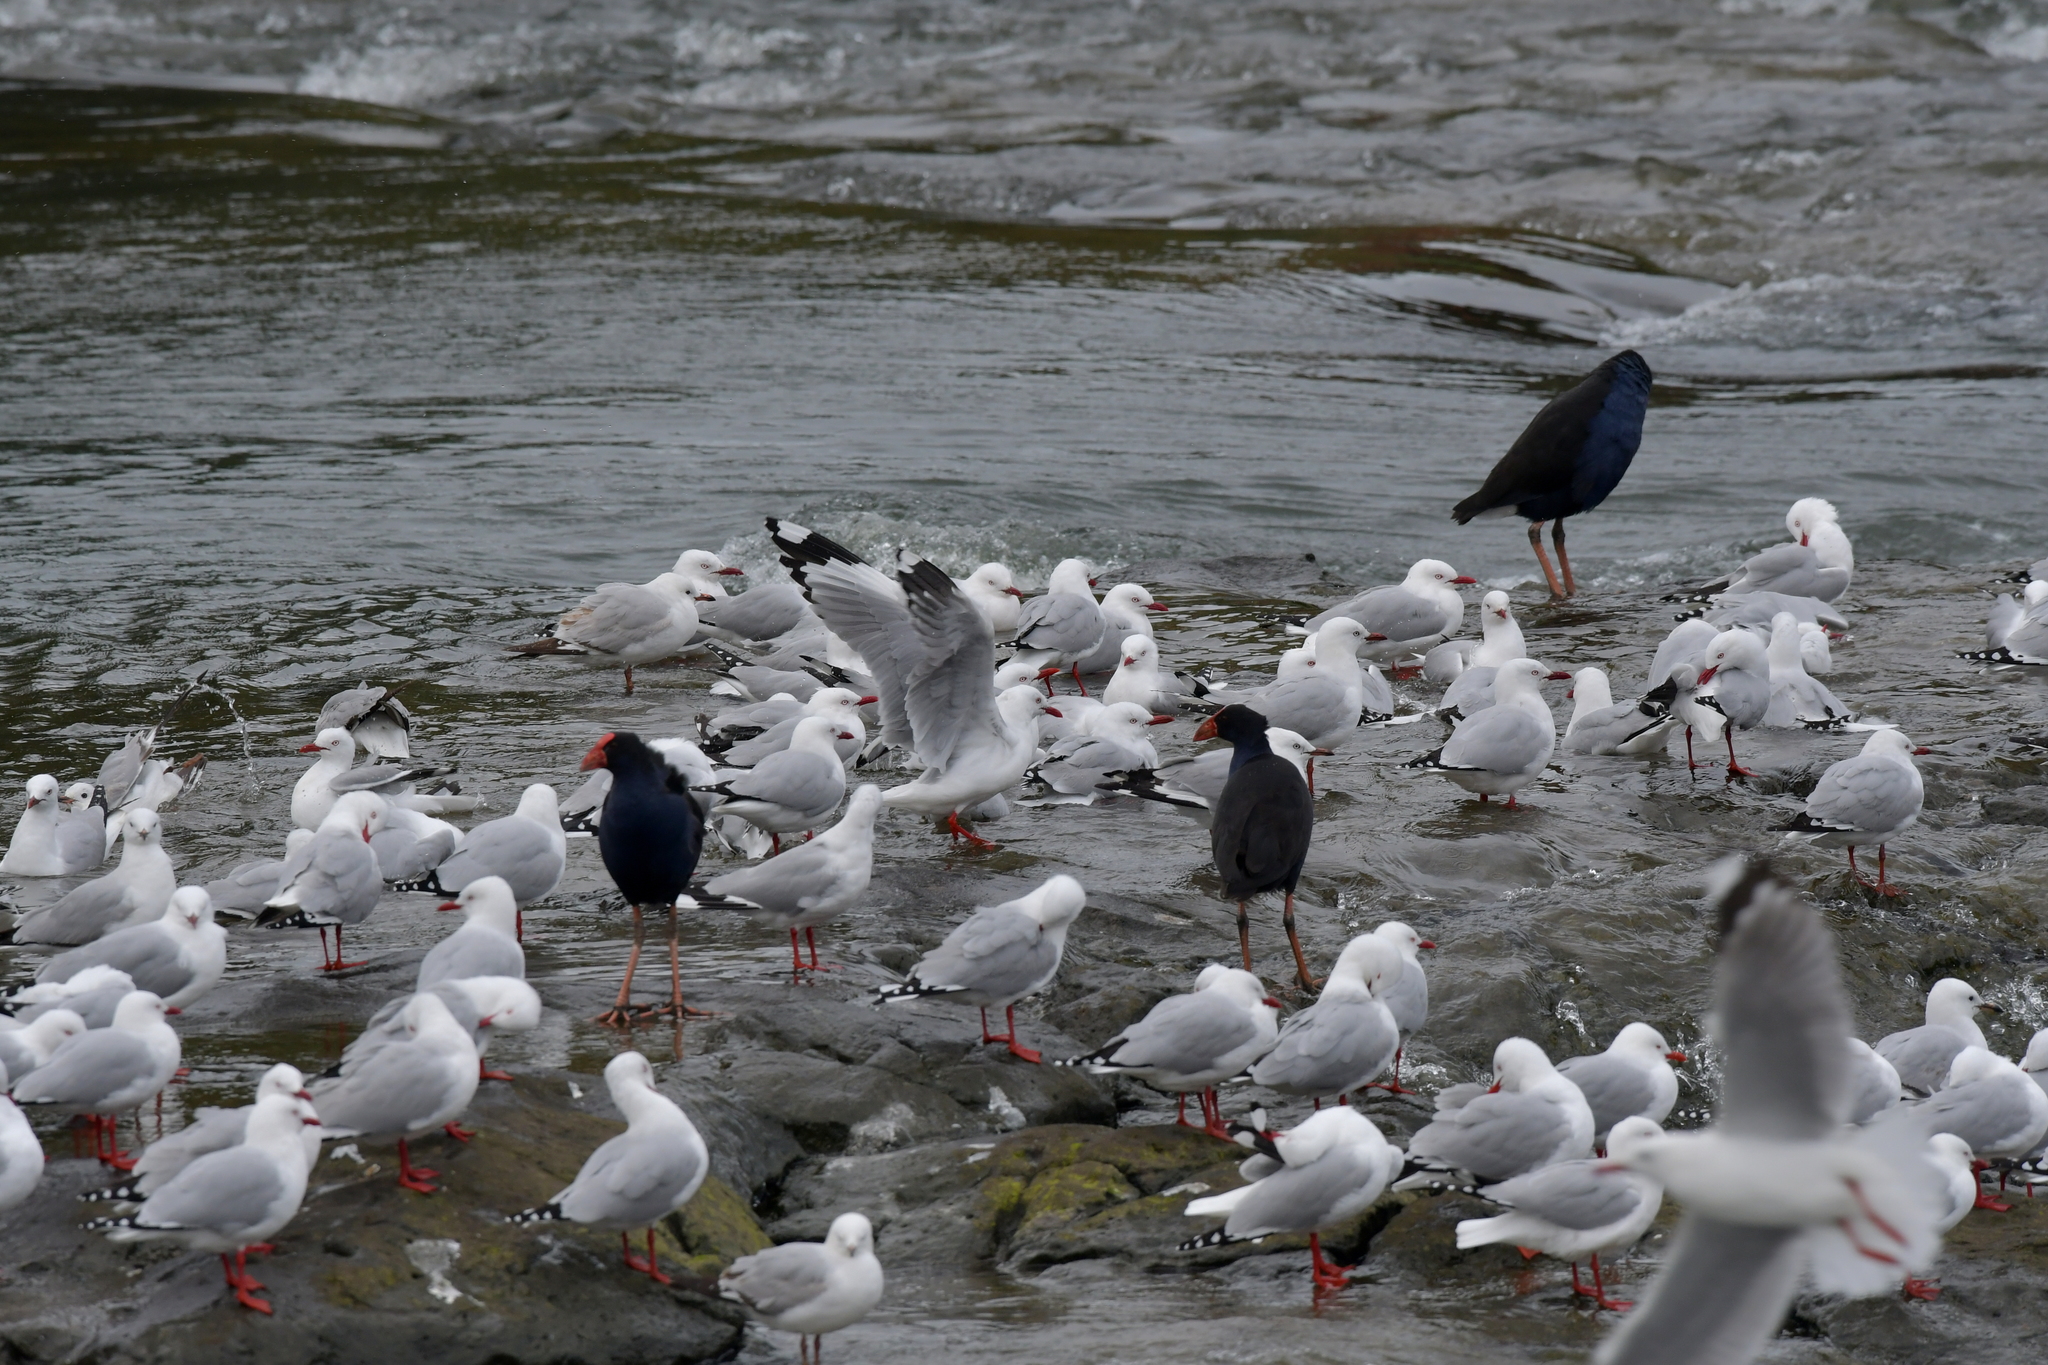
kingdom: Animalia
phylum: Chordata
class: Aves
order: Charadriiformes
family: Laridae
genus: Chroicocephalus
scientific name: Chroicocephalus novaehollandiae
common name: Silver gull
